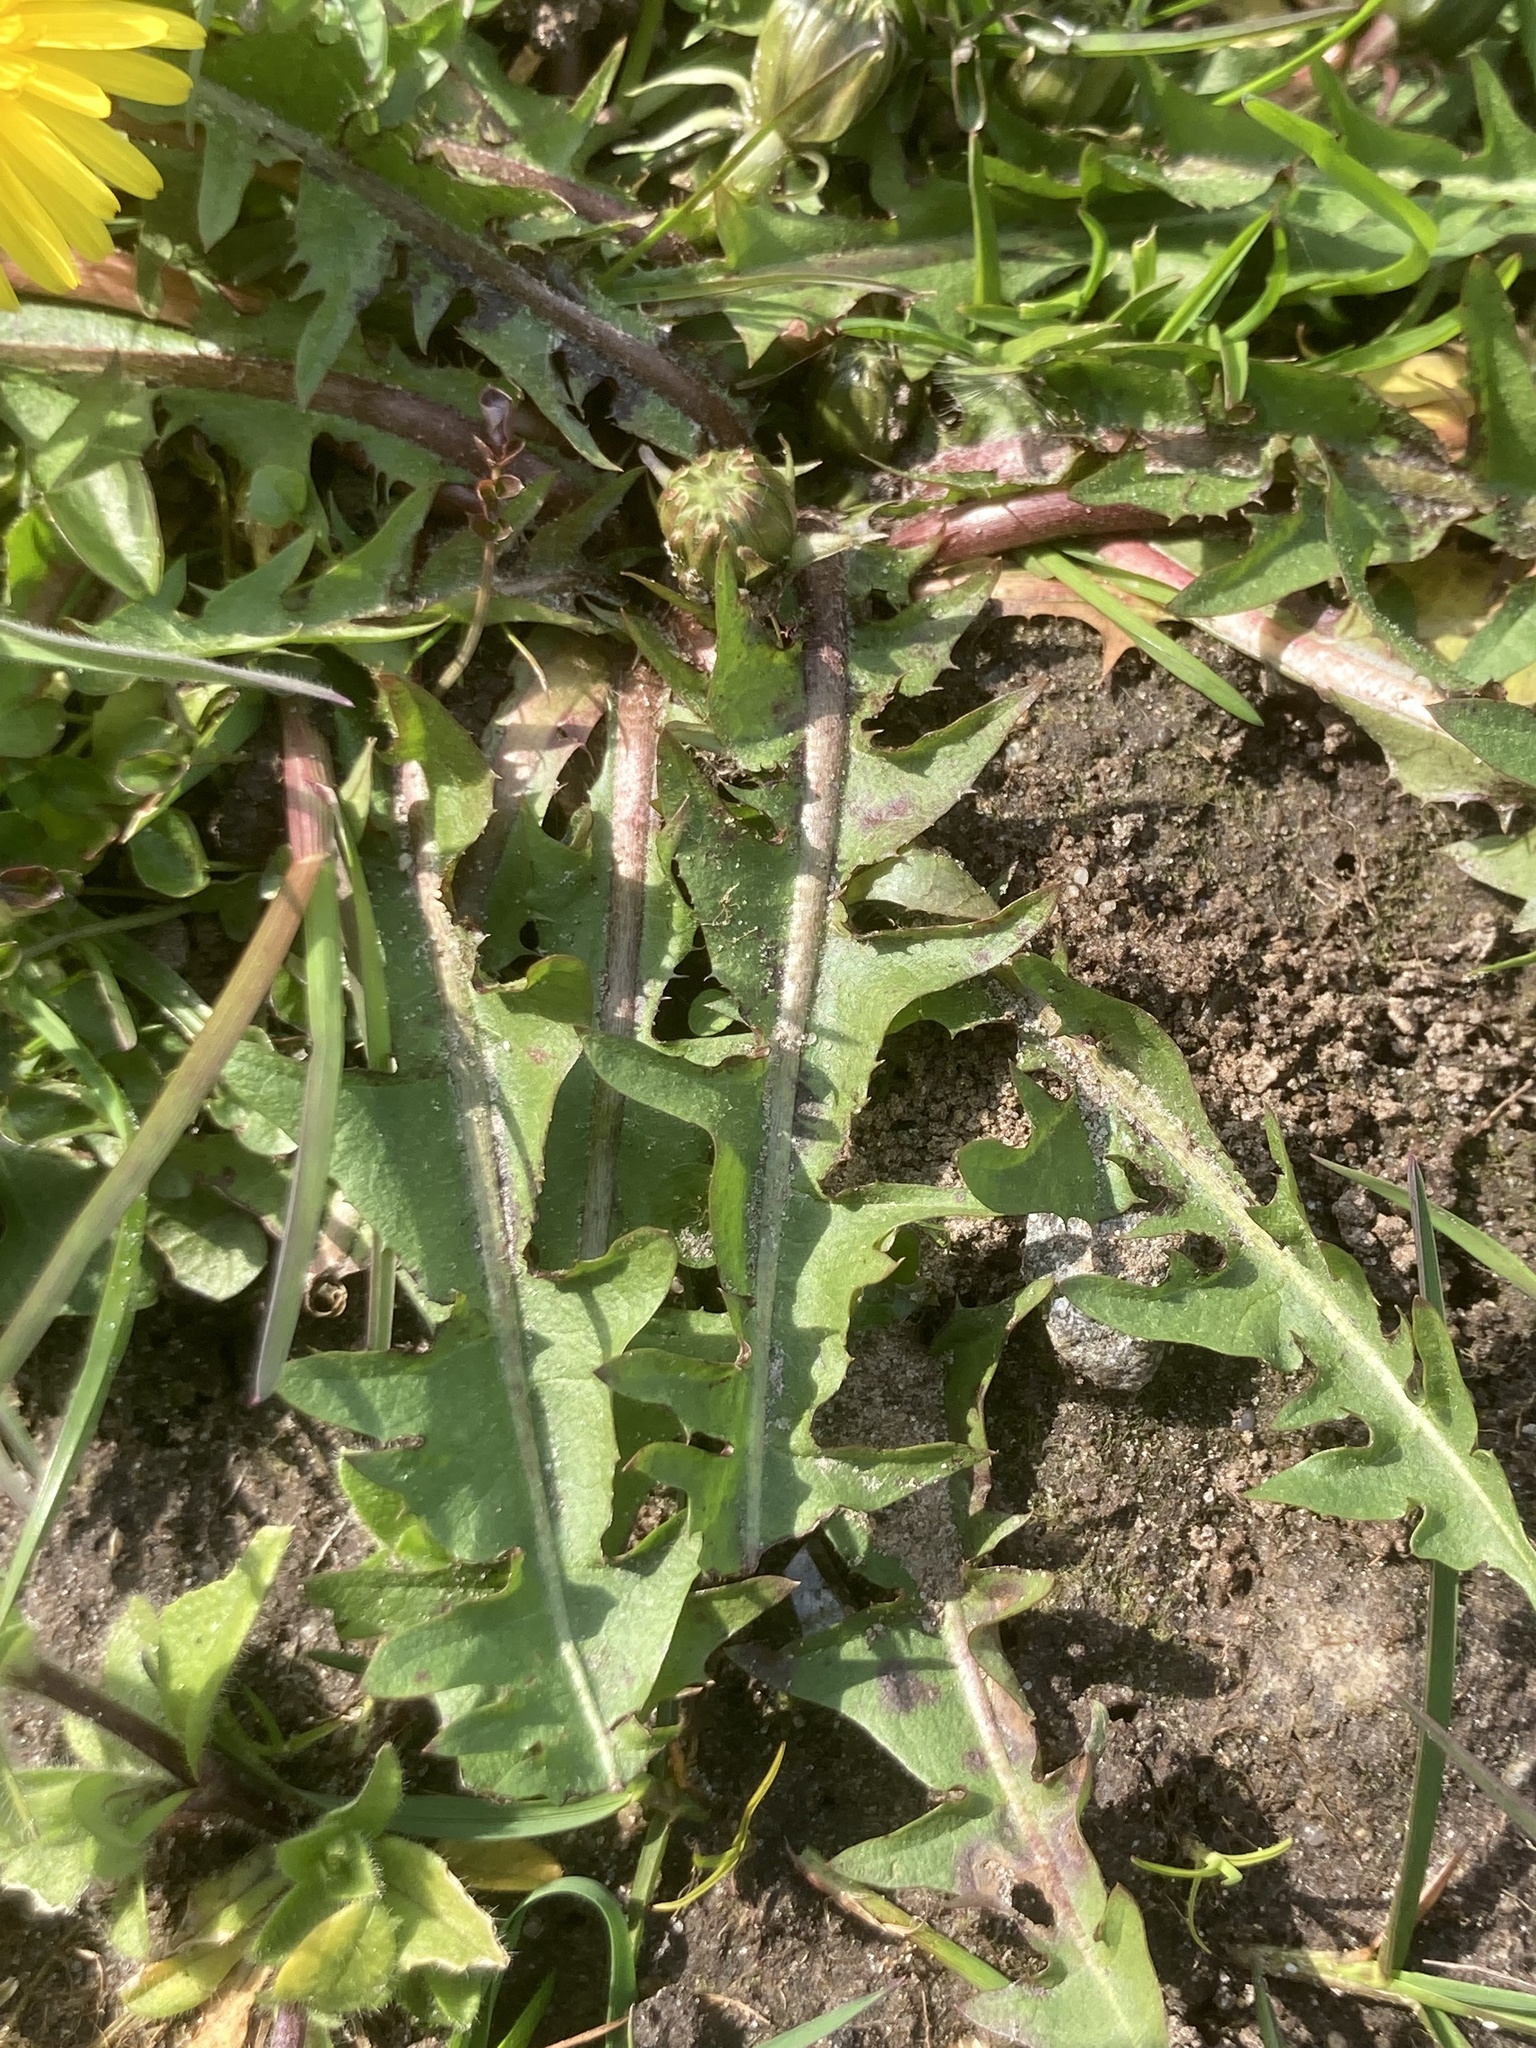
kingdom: Plantae
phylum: Tracheophyta
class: Magnoliopsida
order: Asterales
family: Asteraceae
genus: Taraxacum
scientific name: Taraxacum officinale
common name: Common dandelion
